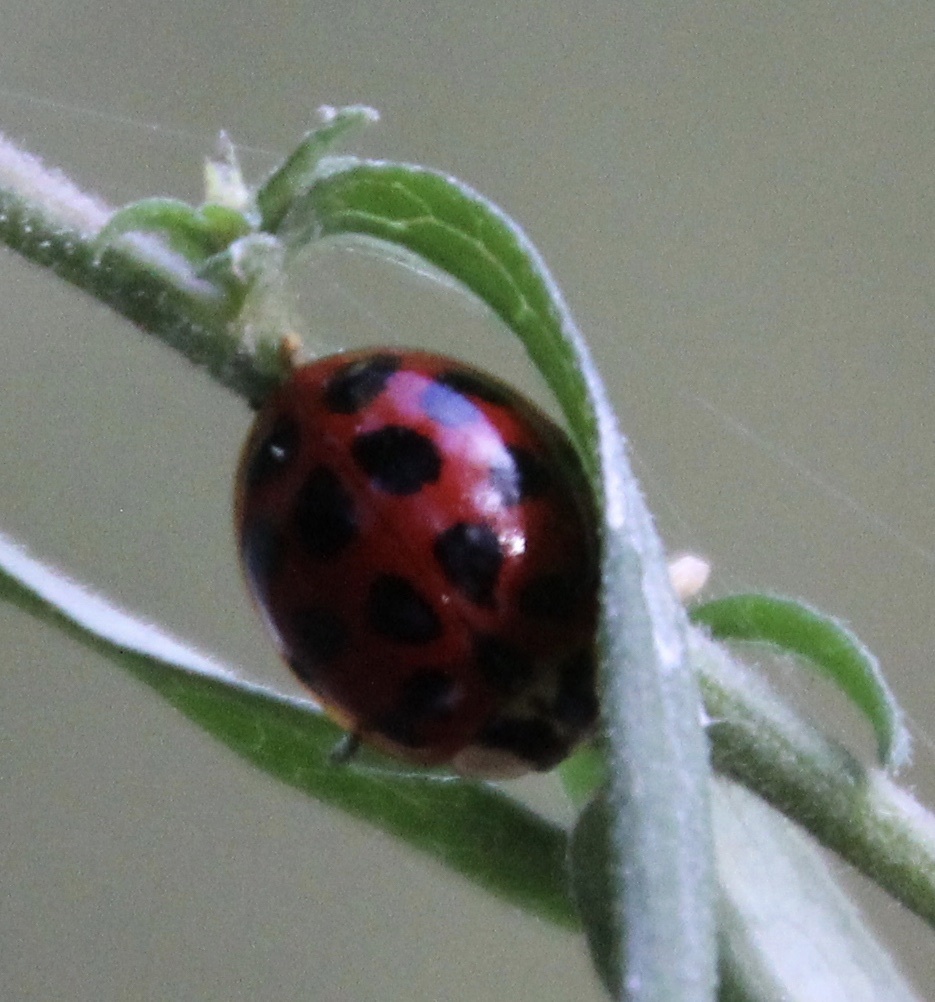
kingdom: Animalia
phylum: Arthropoda
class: Insecta
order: Coleoptera
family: Coccinellidae
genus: Harmonia
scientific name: Harmonia axyridis
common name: Harlequin ladybird
